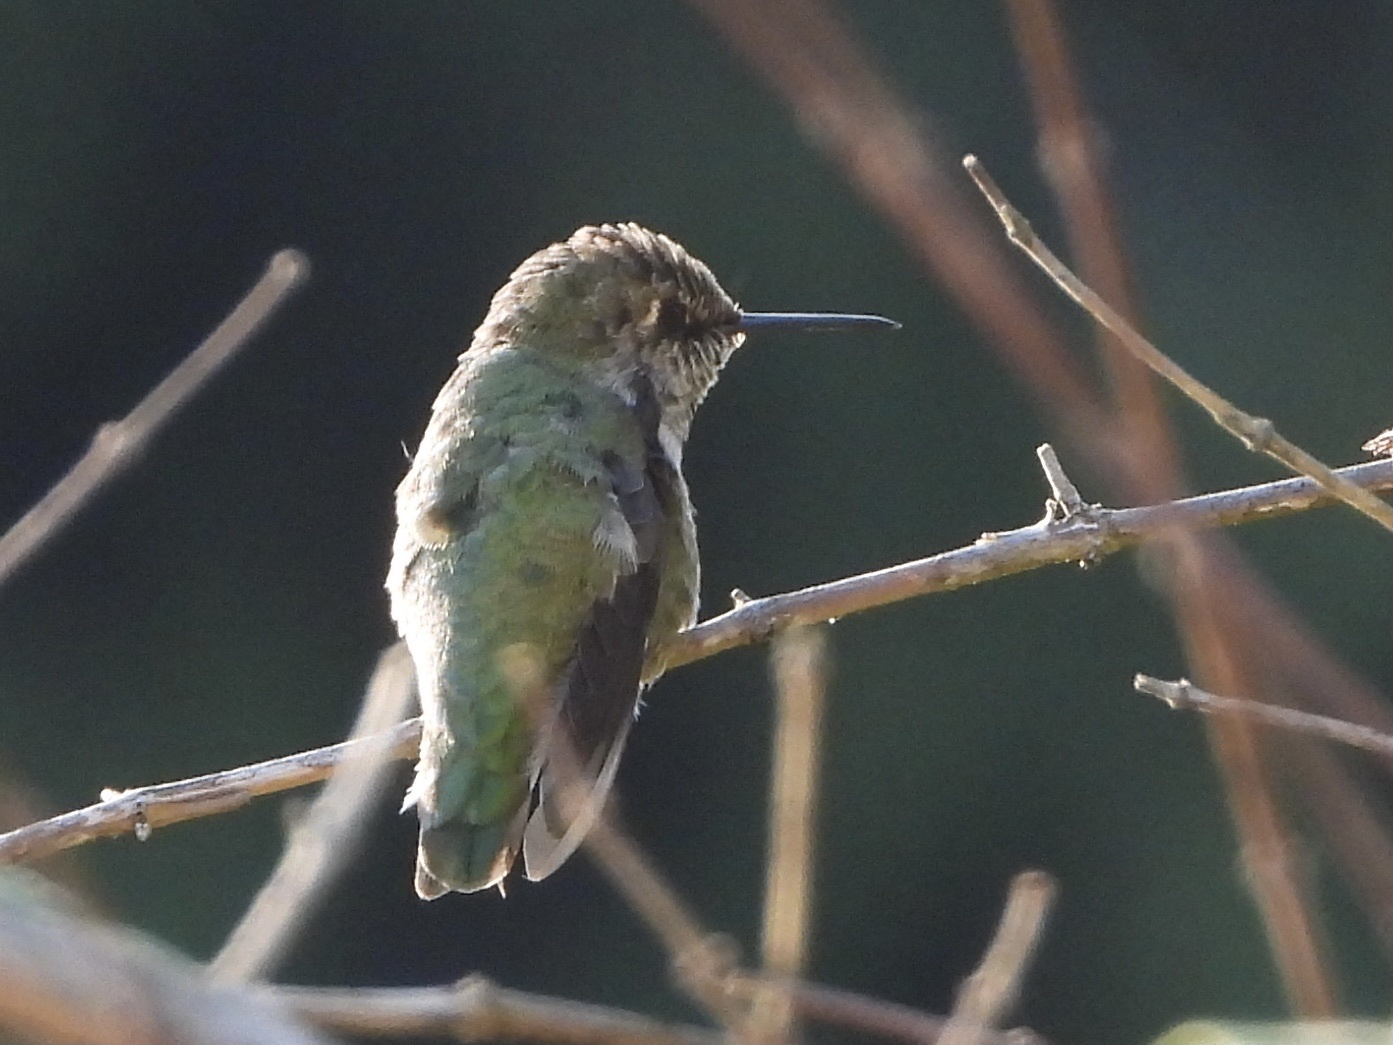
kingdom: Animalia
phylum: Chordata
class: Aves
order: Apodiformes
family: Trochilidae
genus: Calypte
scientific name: Calypte anna
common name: Anna's hummingbird
